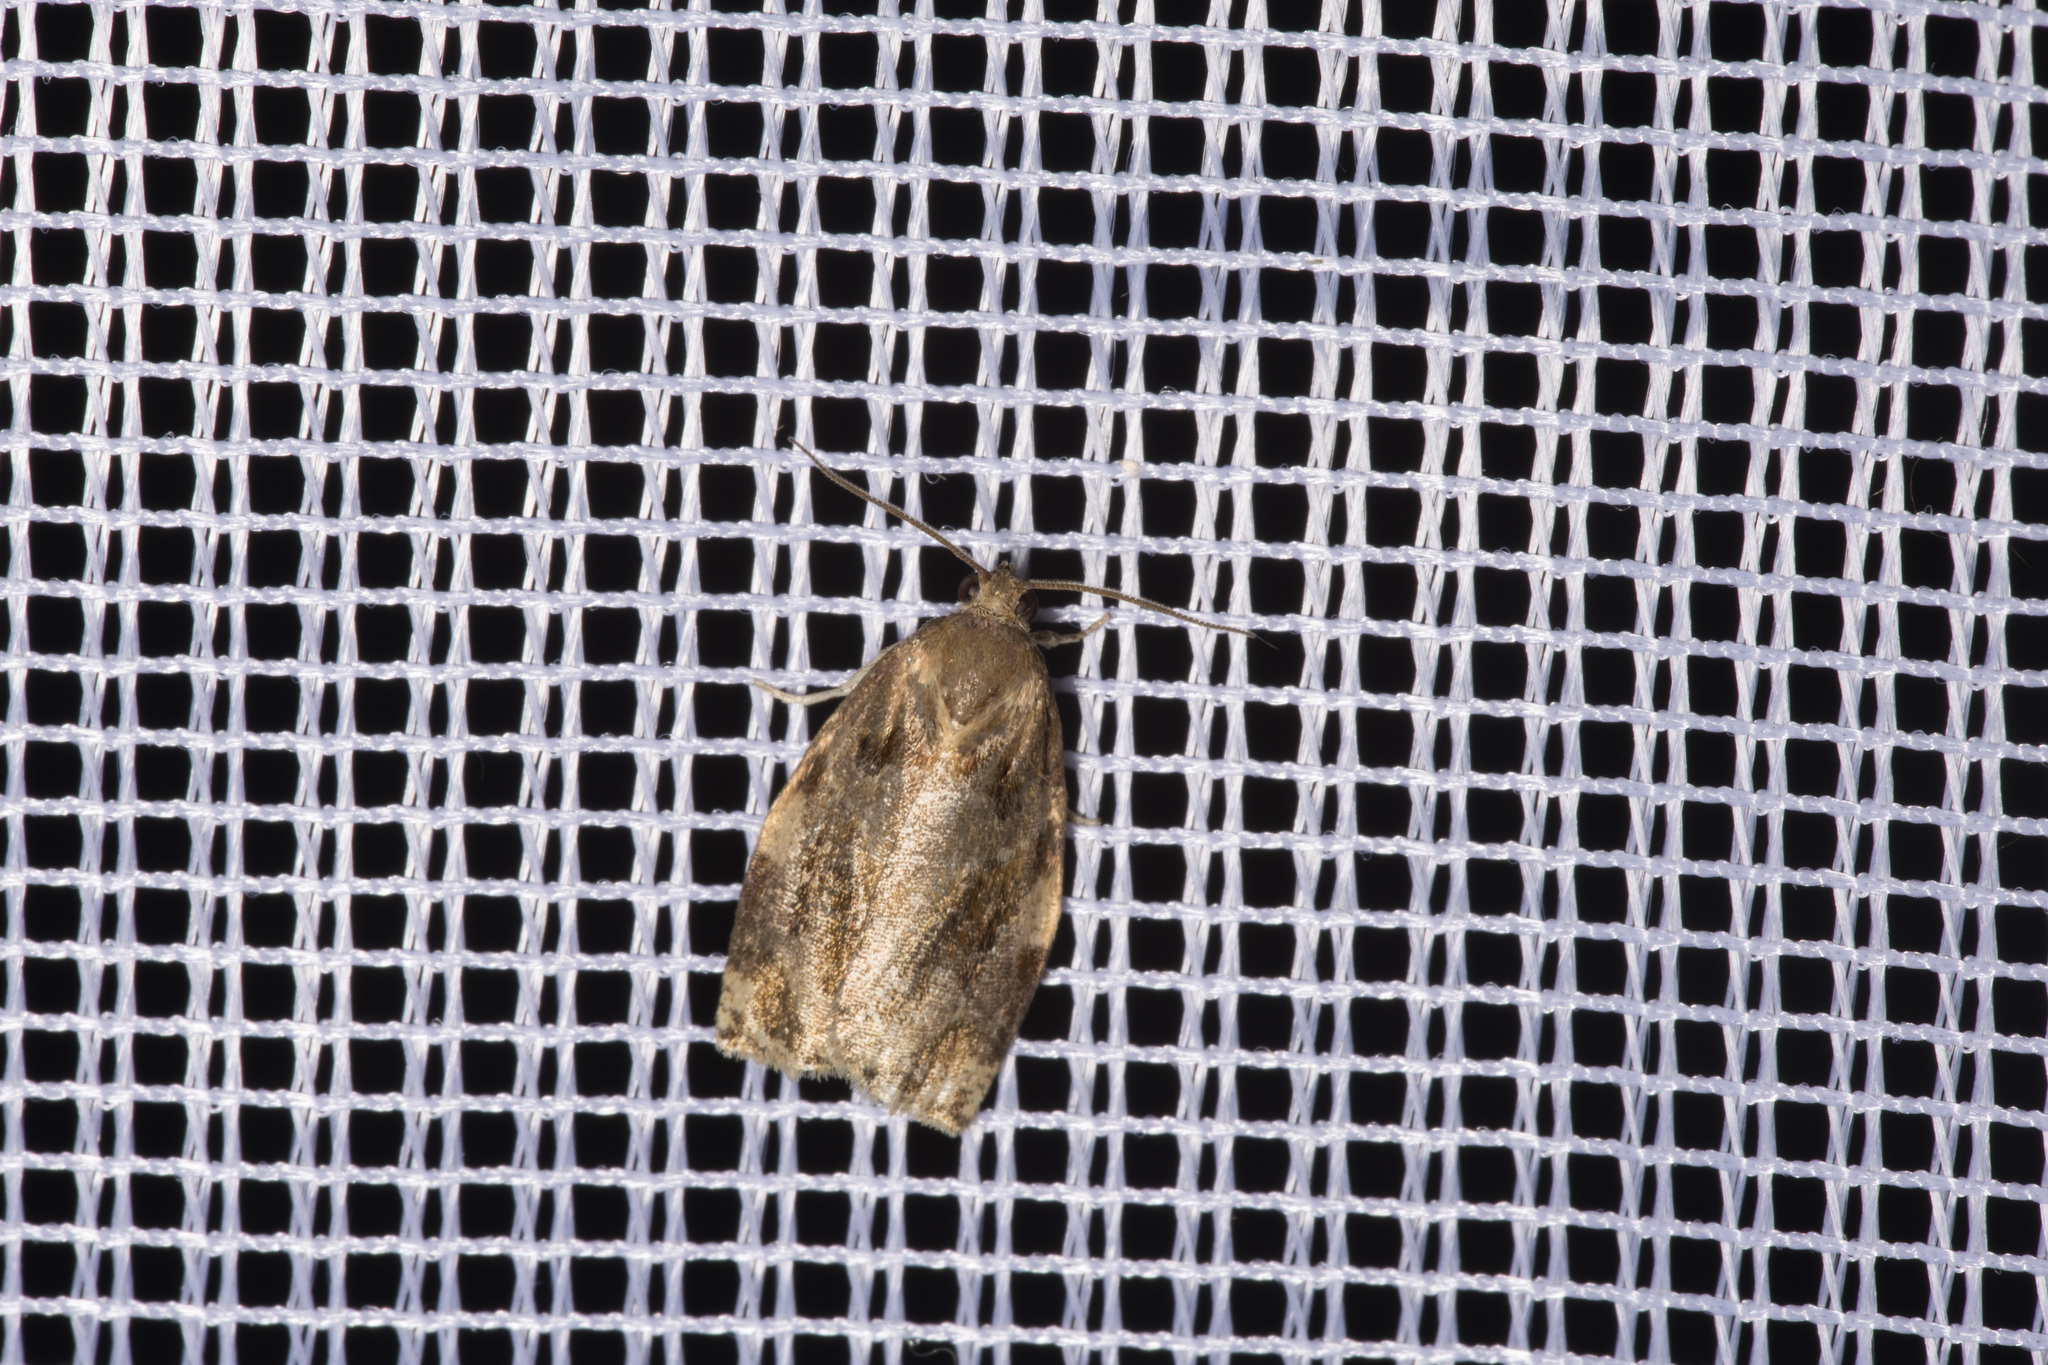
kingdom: Animalia
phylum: Arthropoda
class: Insecta
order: Lepidoptera
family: Tortricidae
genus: Archips
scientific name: Archips xylosteana
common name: Variegated golden tortrix
